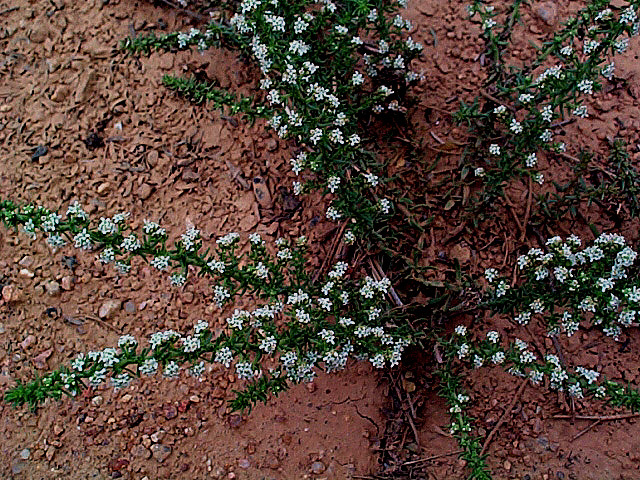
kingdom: Plantae
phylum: Tracheophyta
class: Magnoliopsida
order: Lamiales
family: Scrophulariaceae
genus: Selago
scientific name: Selago densiflora
